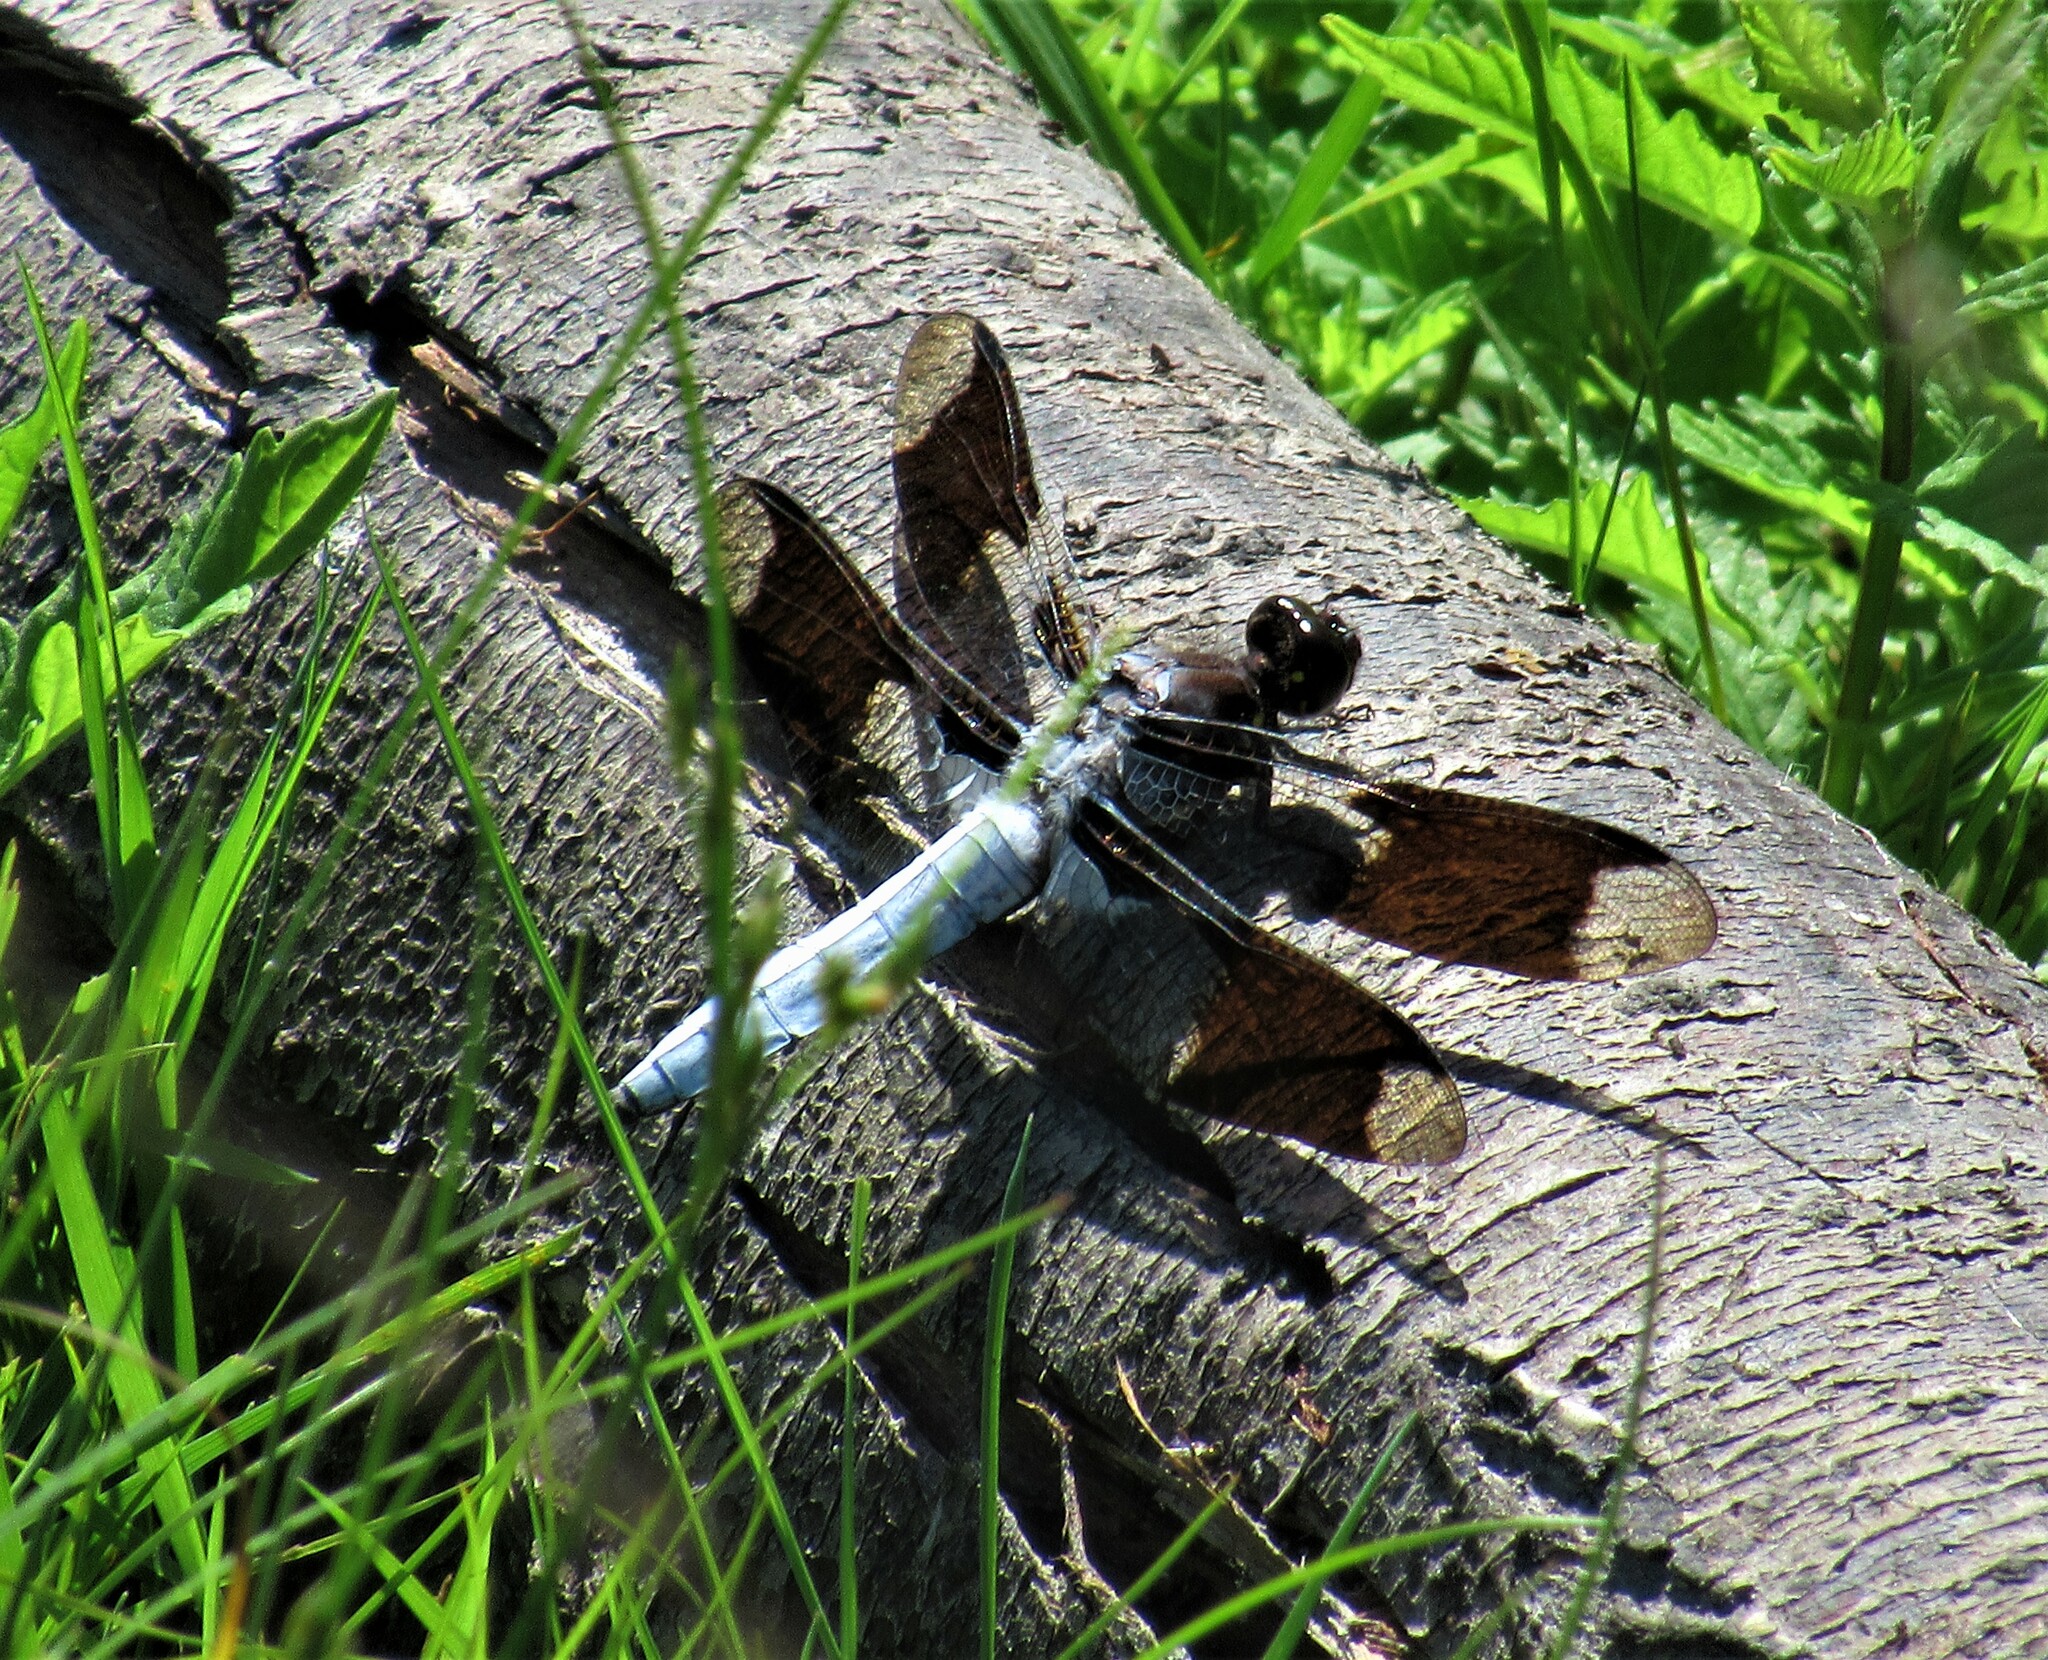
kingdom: Animalia
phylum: Arthropoda
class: Insecta
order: Odonata
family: Libellulidae
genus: Plathemis
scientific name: Plathemis lydia
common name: Common whitetail
